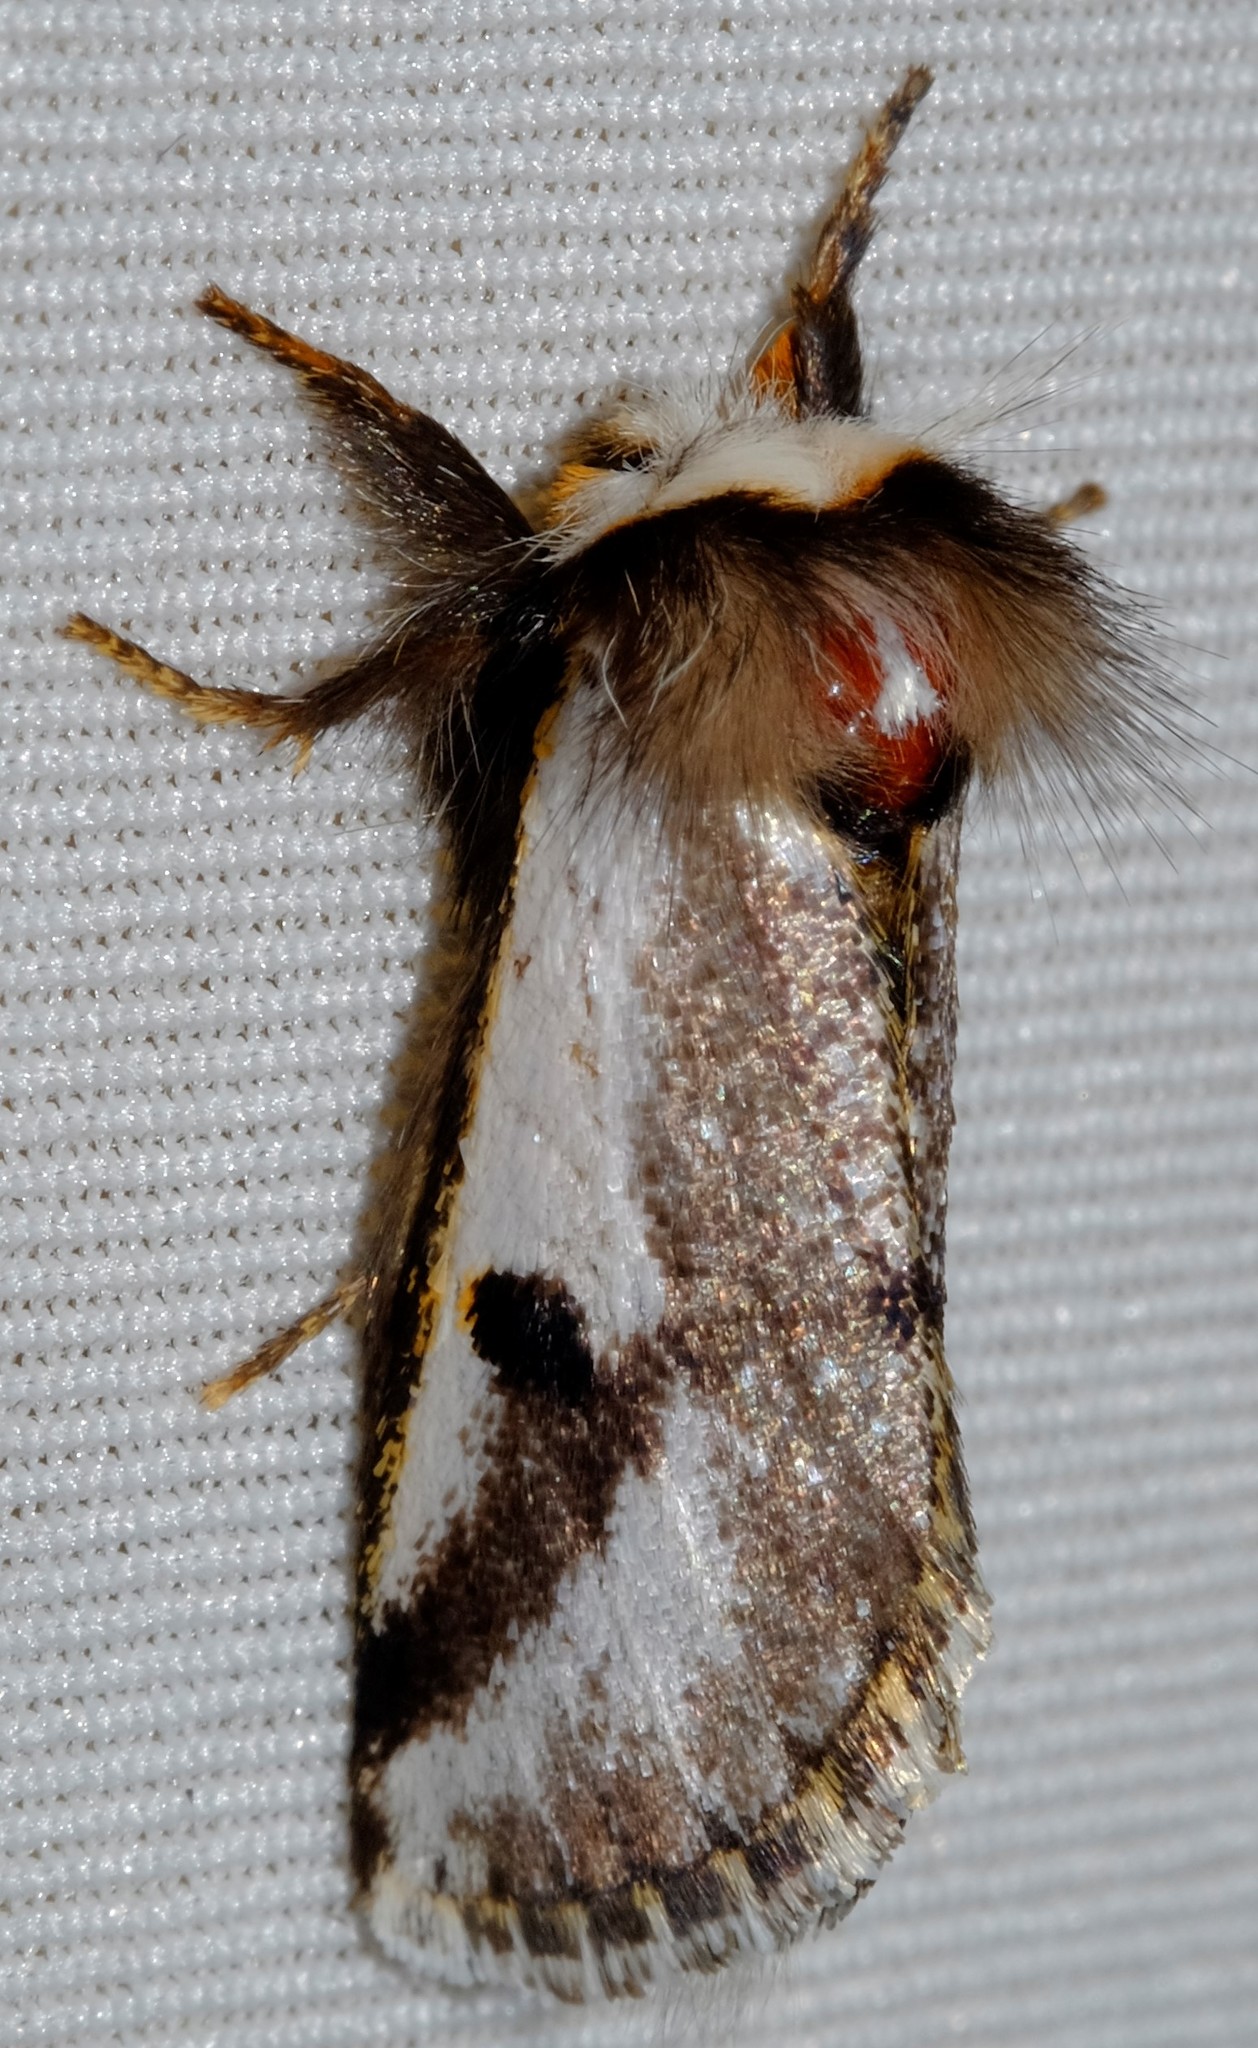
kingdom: Animalia
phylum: Arthropoda
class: Insecta
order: Lepidoptera
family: Notodontidae
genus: Epicoma
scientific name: Epicoma melanospila
